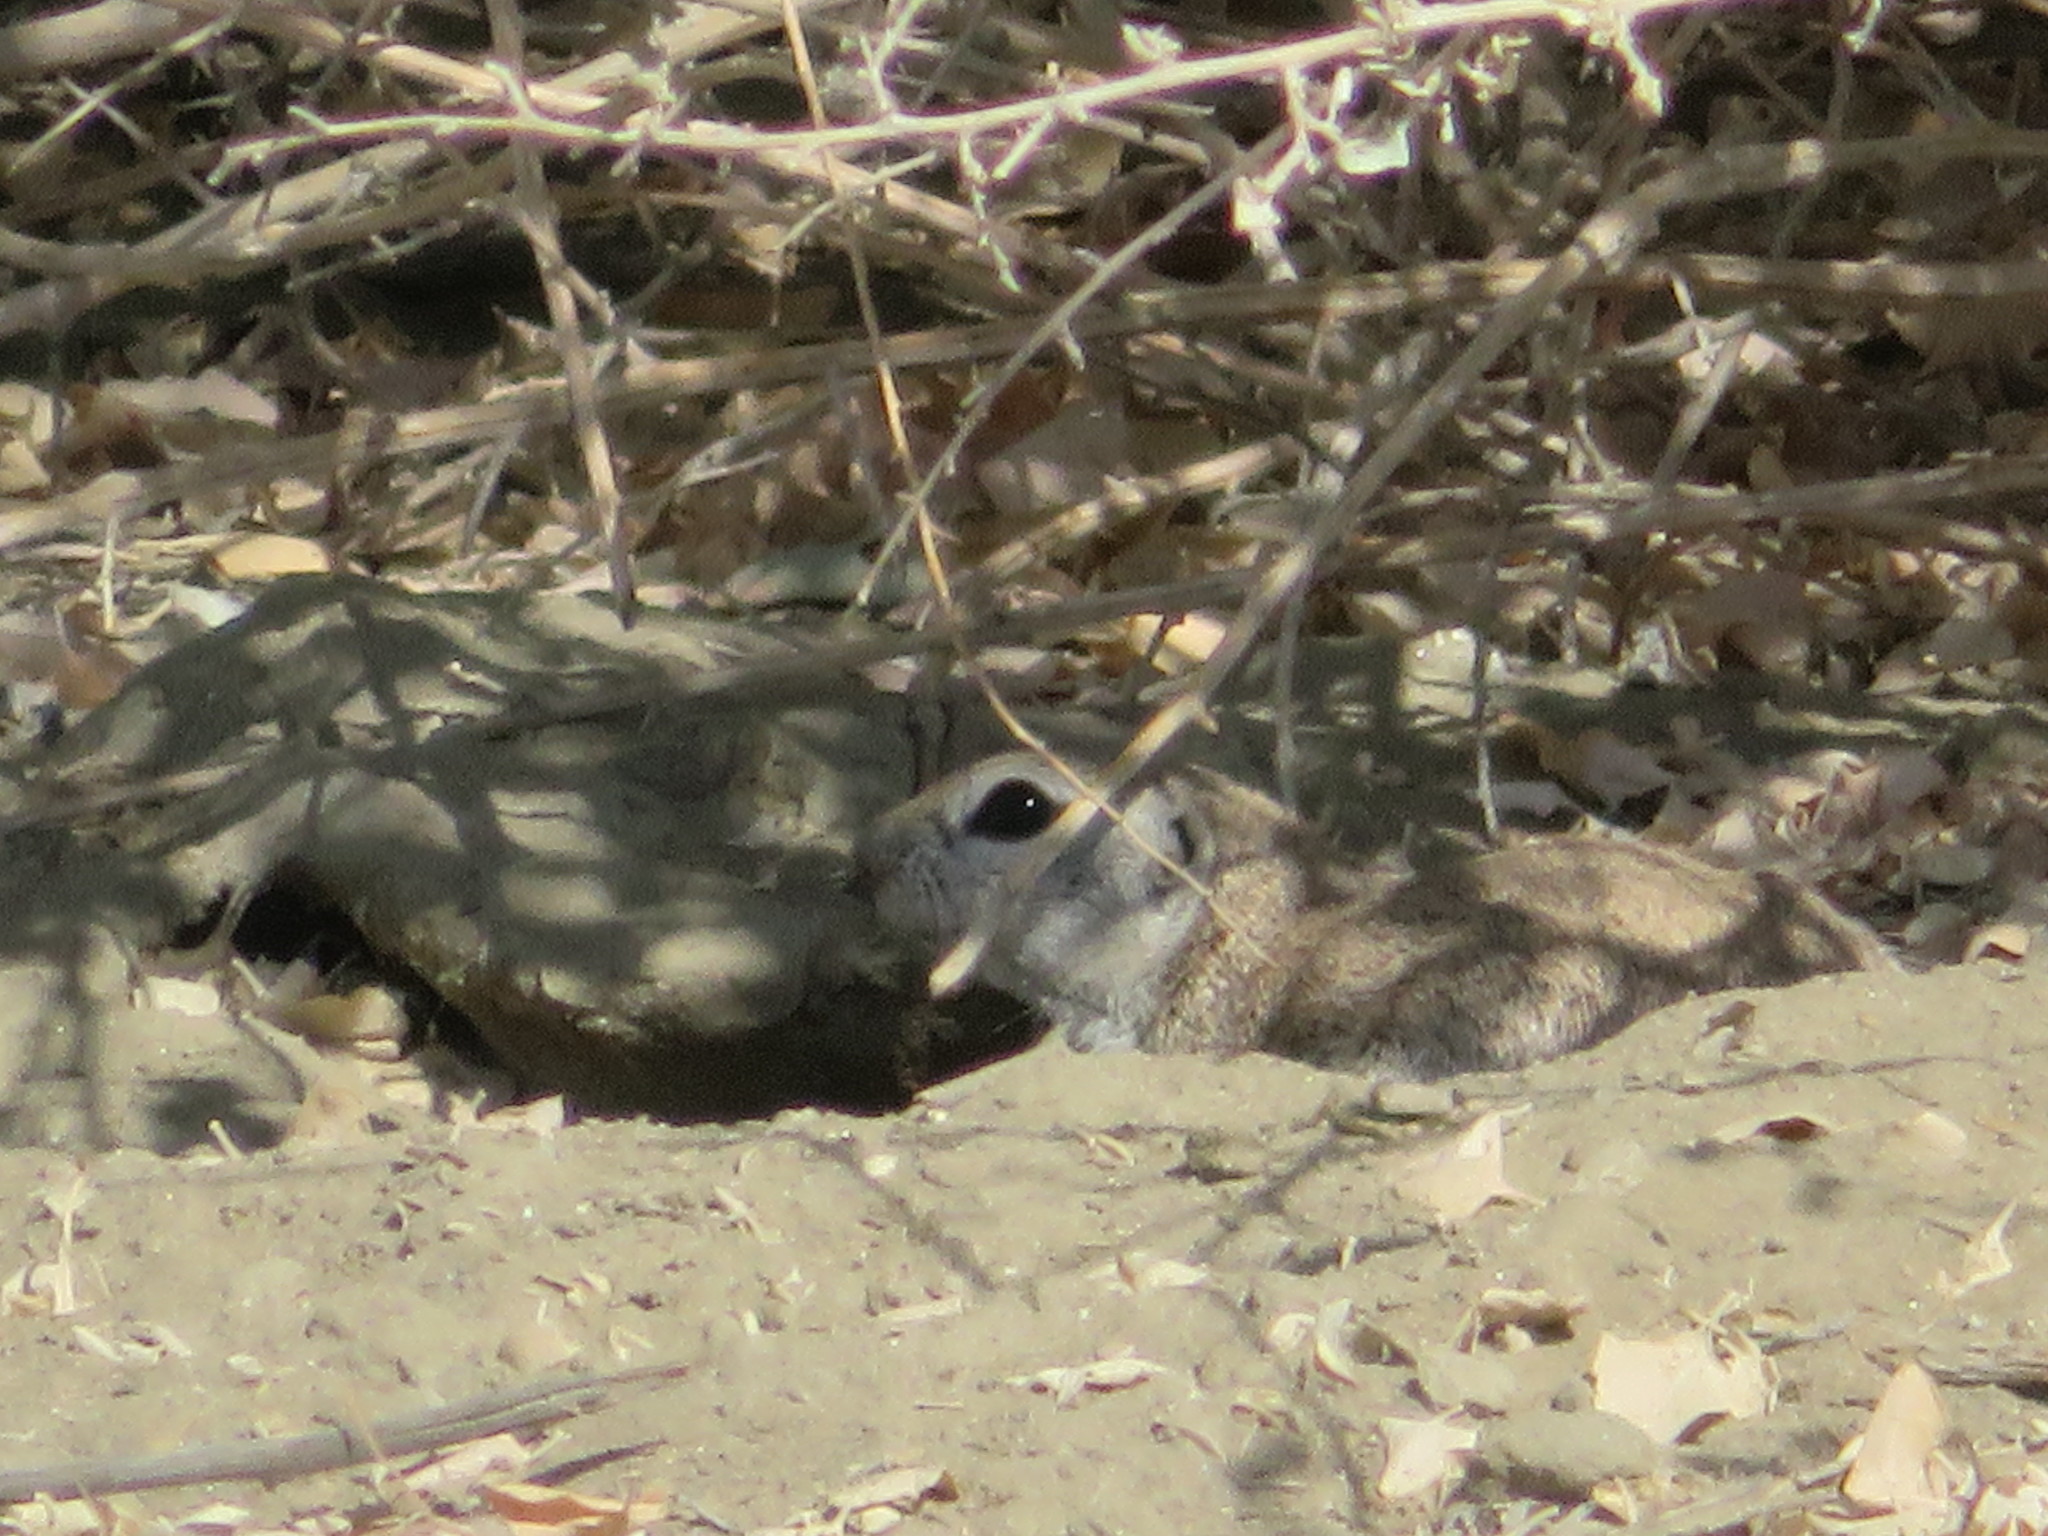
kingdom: Animalia
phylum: Chordata
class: Mammalia
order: Rodentia
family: Sciuridae
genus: Xerospermophilus
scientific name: Xerospermophilus tereticaudus
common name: Round-tailed ground squirrel
